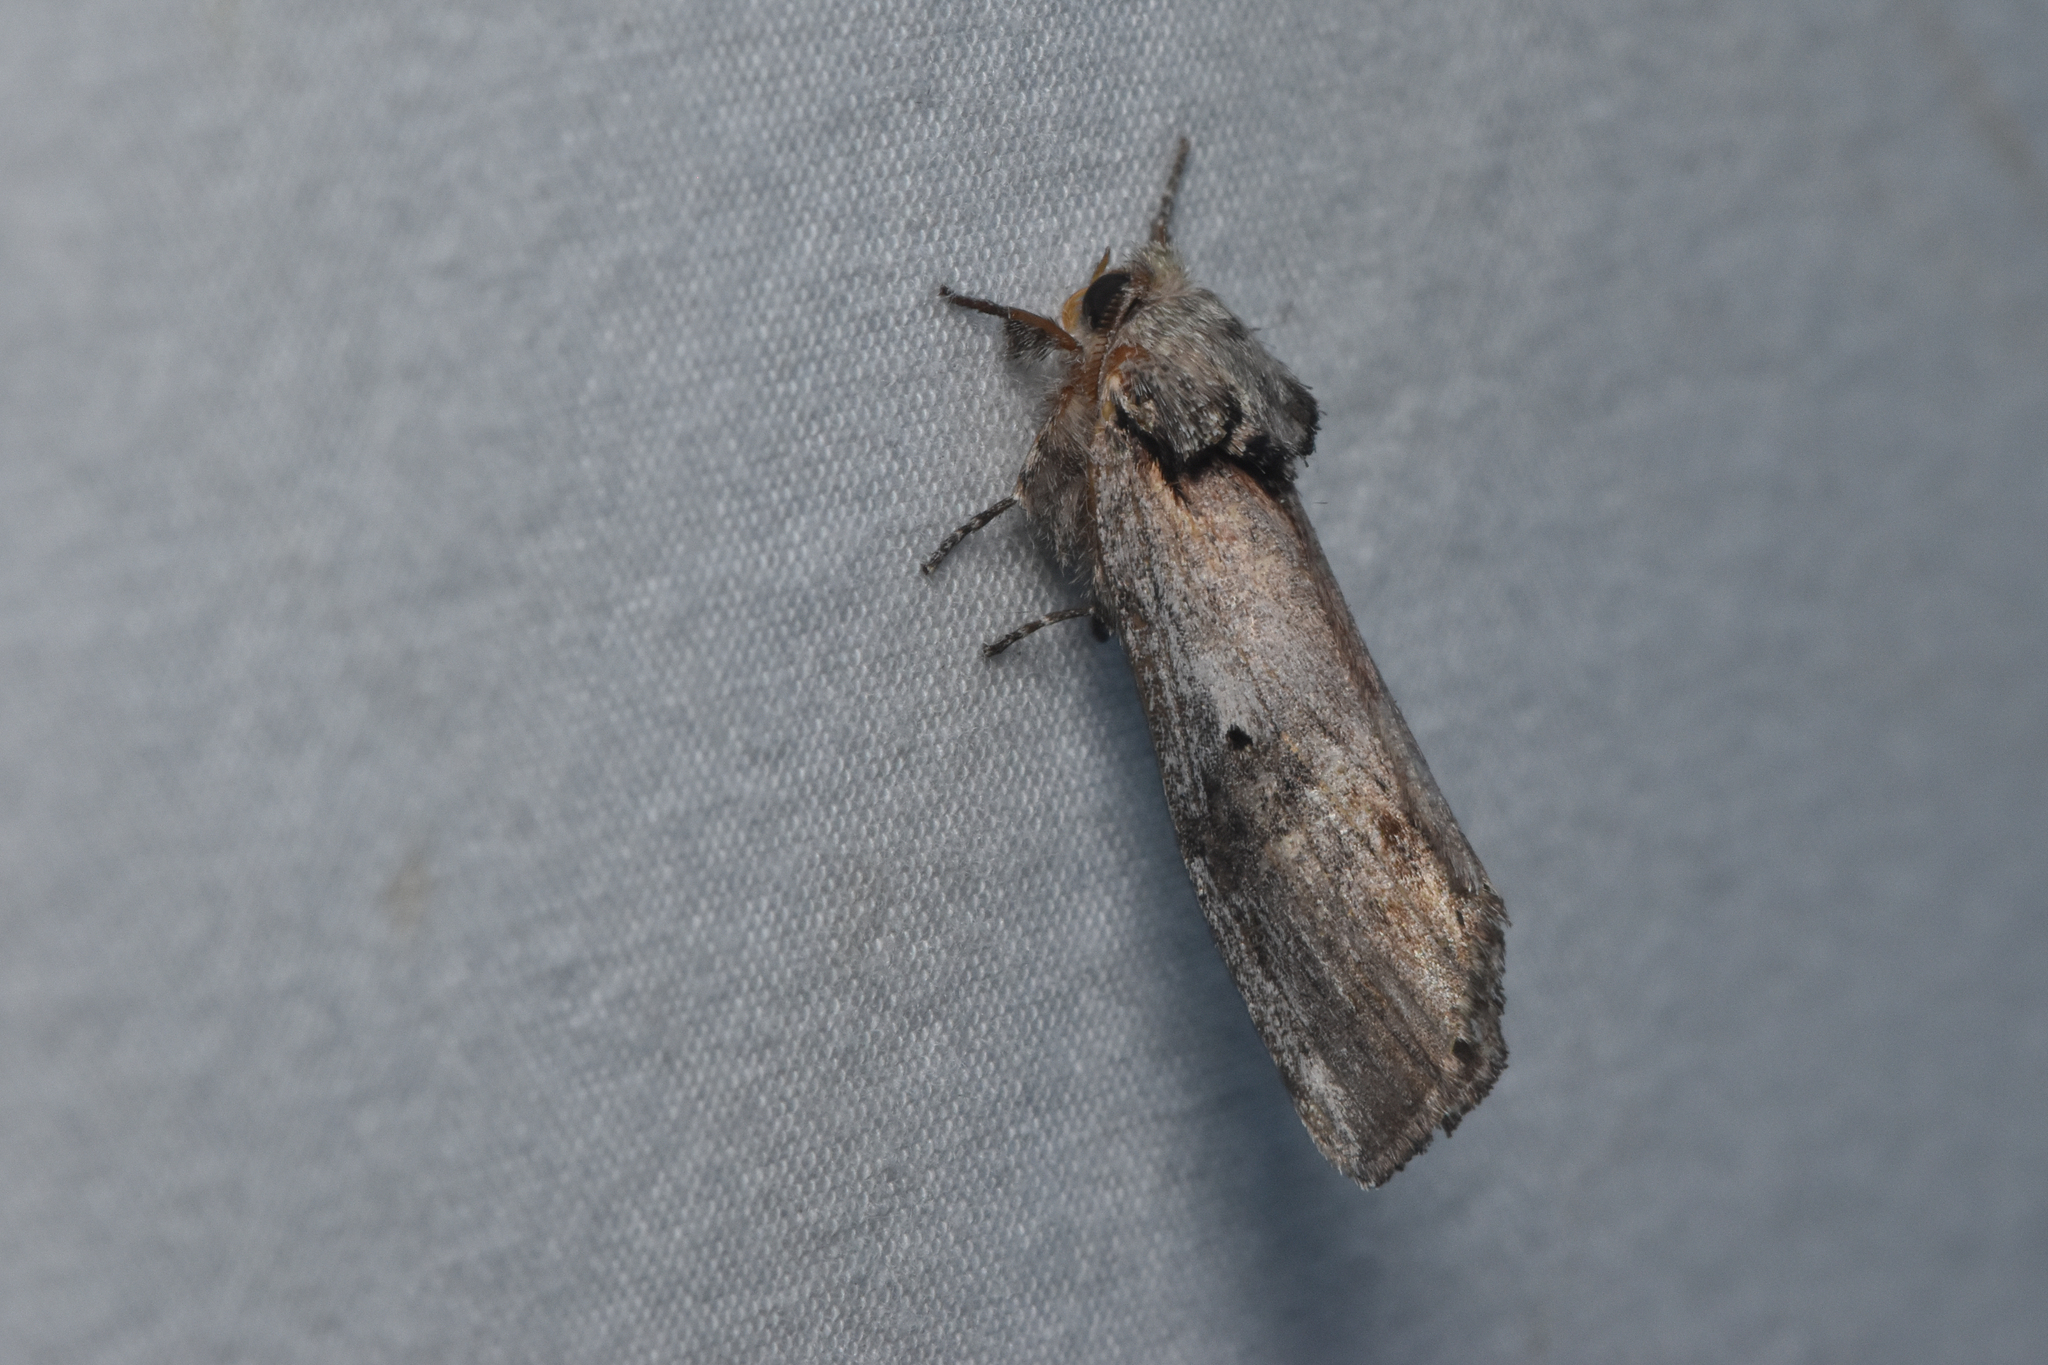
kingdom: Animalia
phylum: Arthropoda
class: Insecta
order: Lepidoptera
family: Notodontidae
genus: Schizura
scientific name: Schizura
